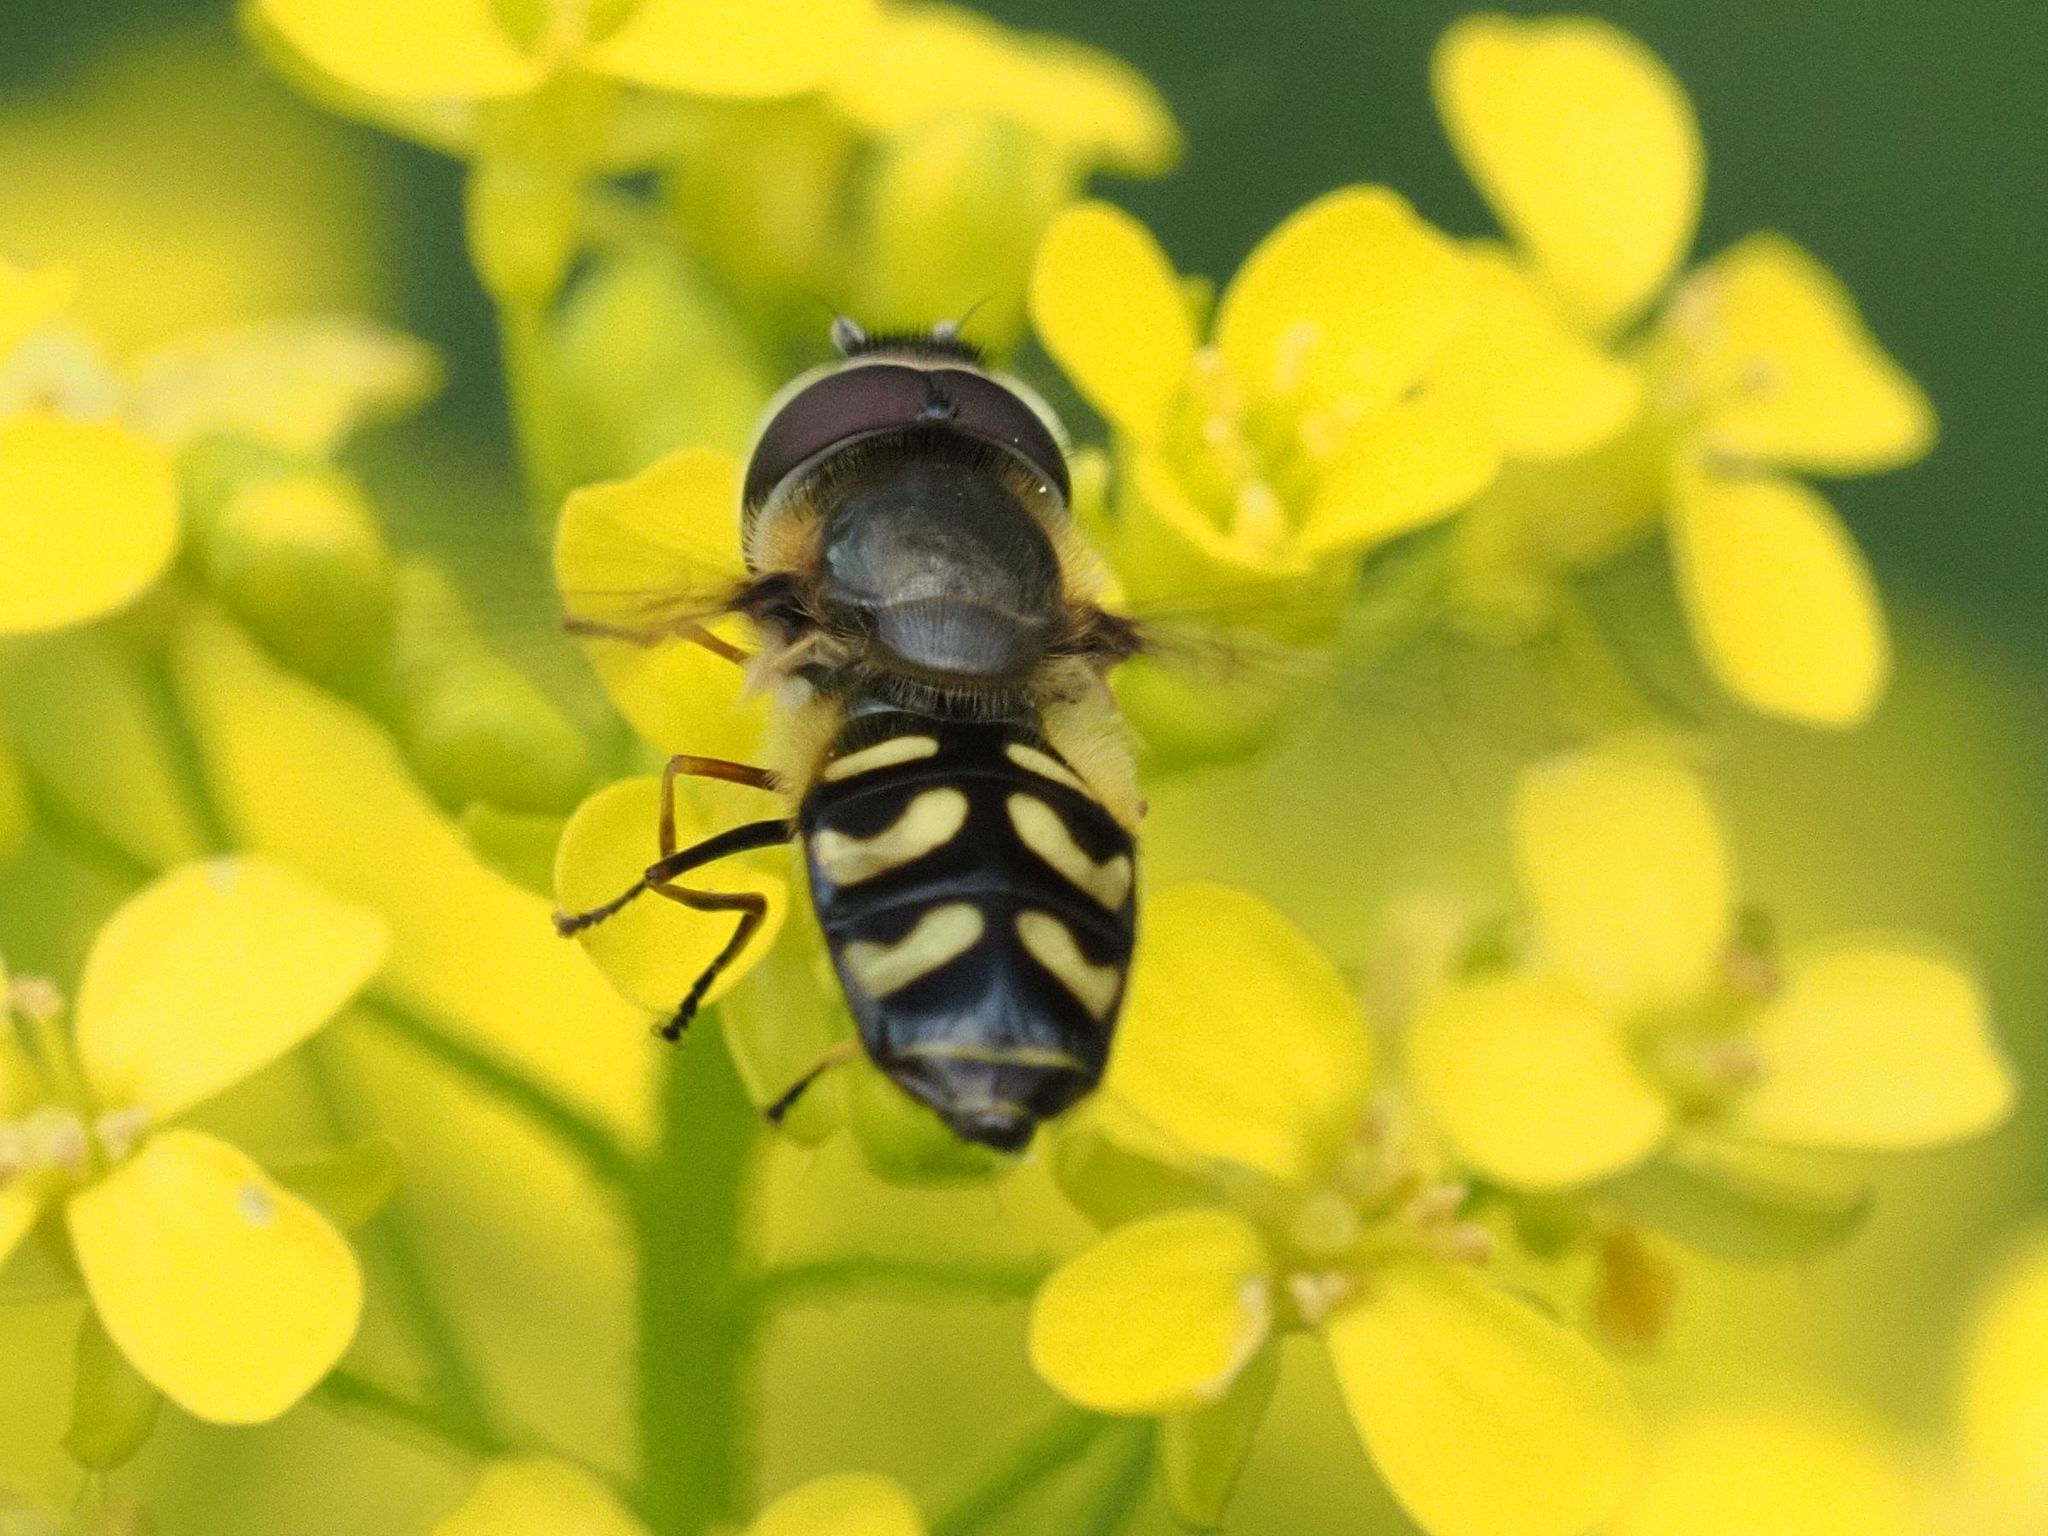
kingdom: Animalia
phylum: Arthropoda
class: Insecta
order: Diptera
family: Syrphidae
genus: Scaeva
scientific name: Scaeva selenitica
